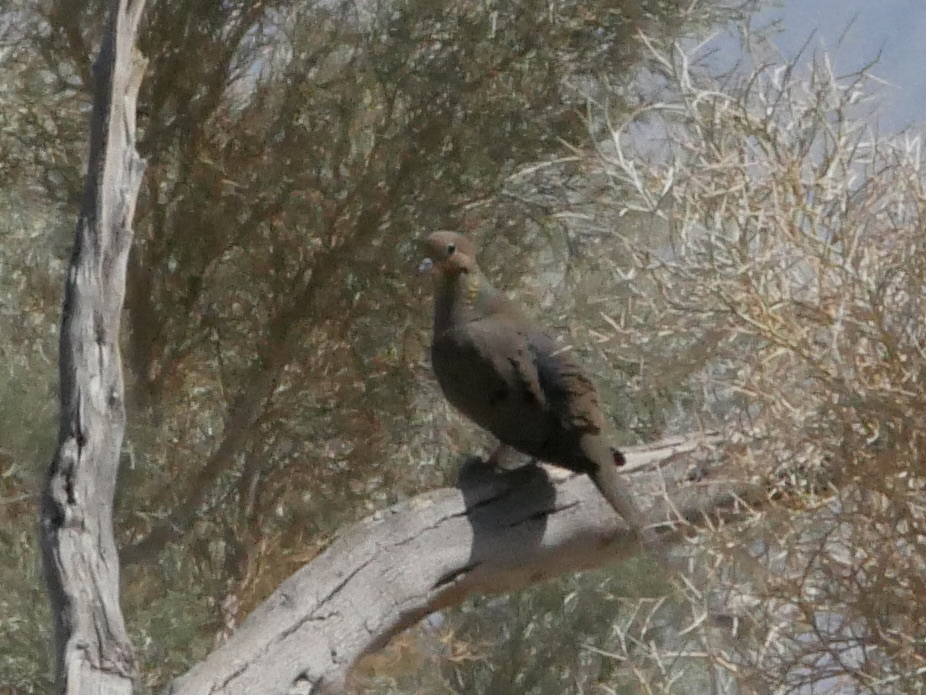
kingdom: Animalia
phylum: Chordata
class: Aves
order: Columbiformes
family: Columbidae
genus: Zenaida
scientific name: Zenaida macroura
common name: Mourning dove
